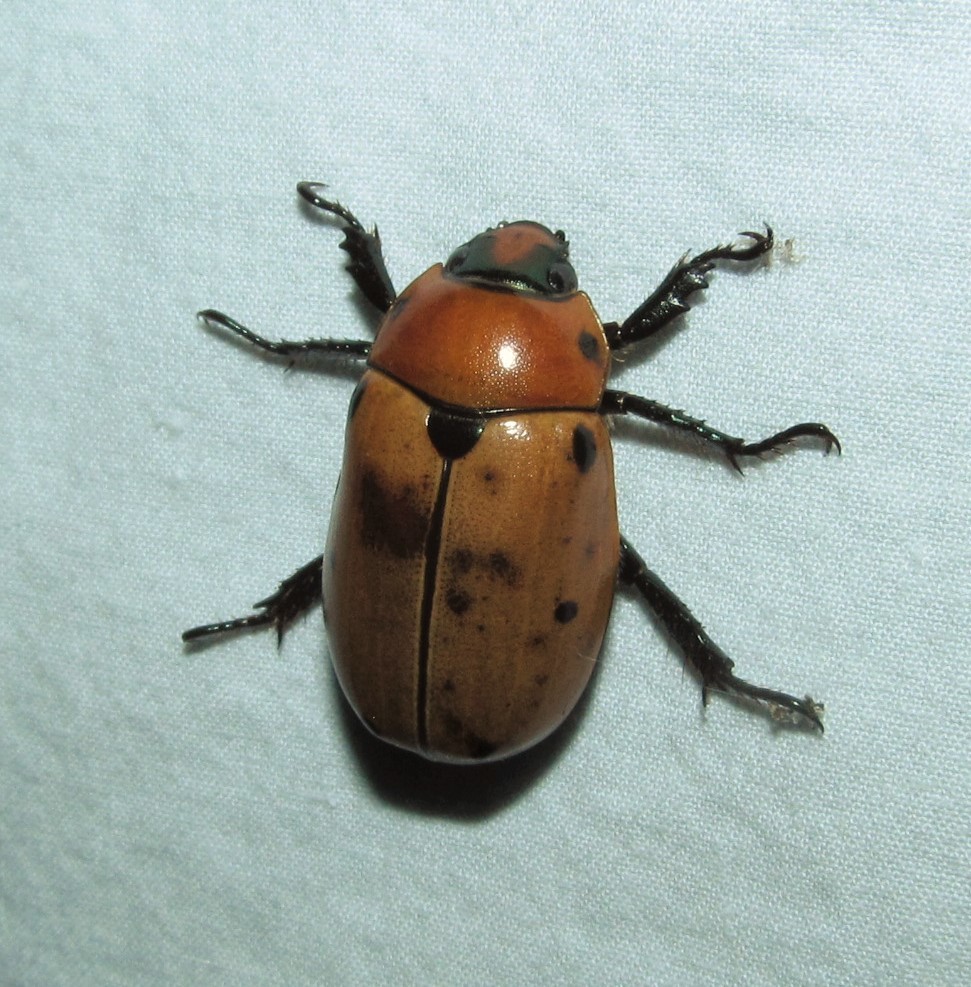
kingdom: Animalia
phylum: Arthropoda
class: Insecta
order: Coleoptera
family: Scarabaeidae
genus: Pelidnota
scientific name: Pelidnota punctata
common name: Grapevine beetle
